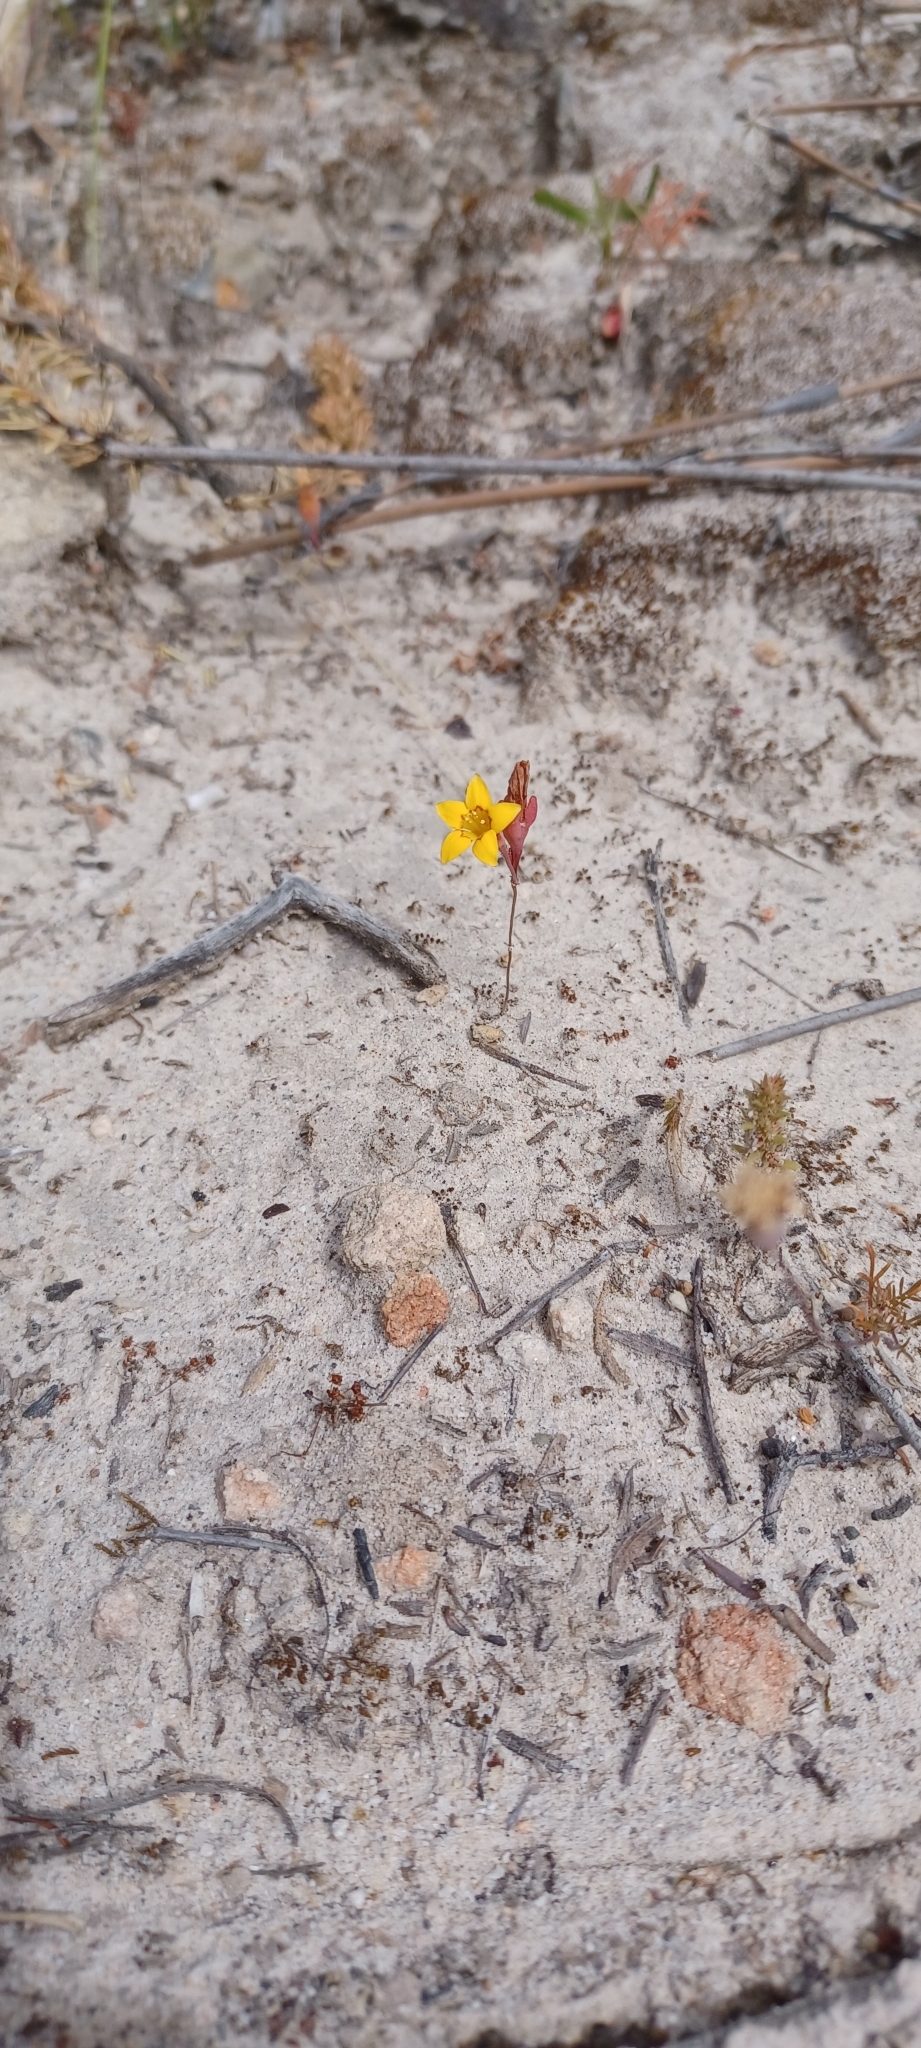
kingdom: Plantae
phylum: Tracheophyta
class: Magnoliopsida
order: Saxifragales
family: Crassulaceae
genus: Crassula
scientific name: Crassula dichotoma
